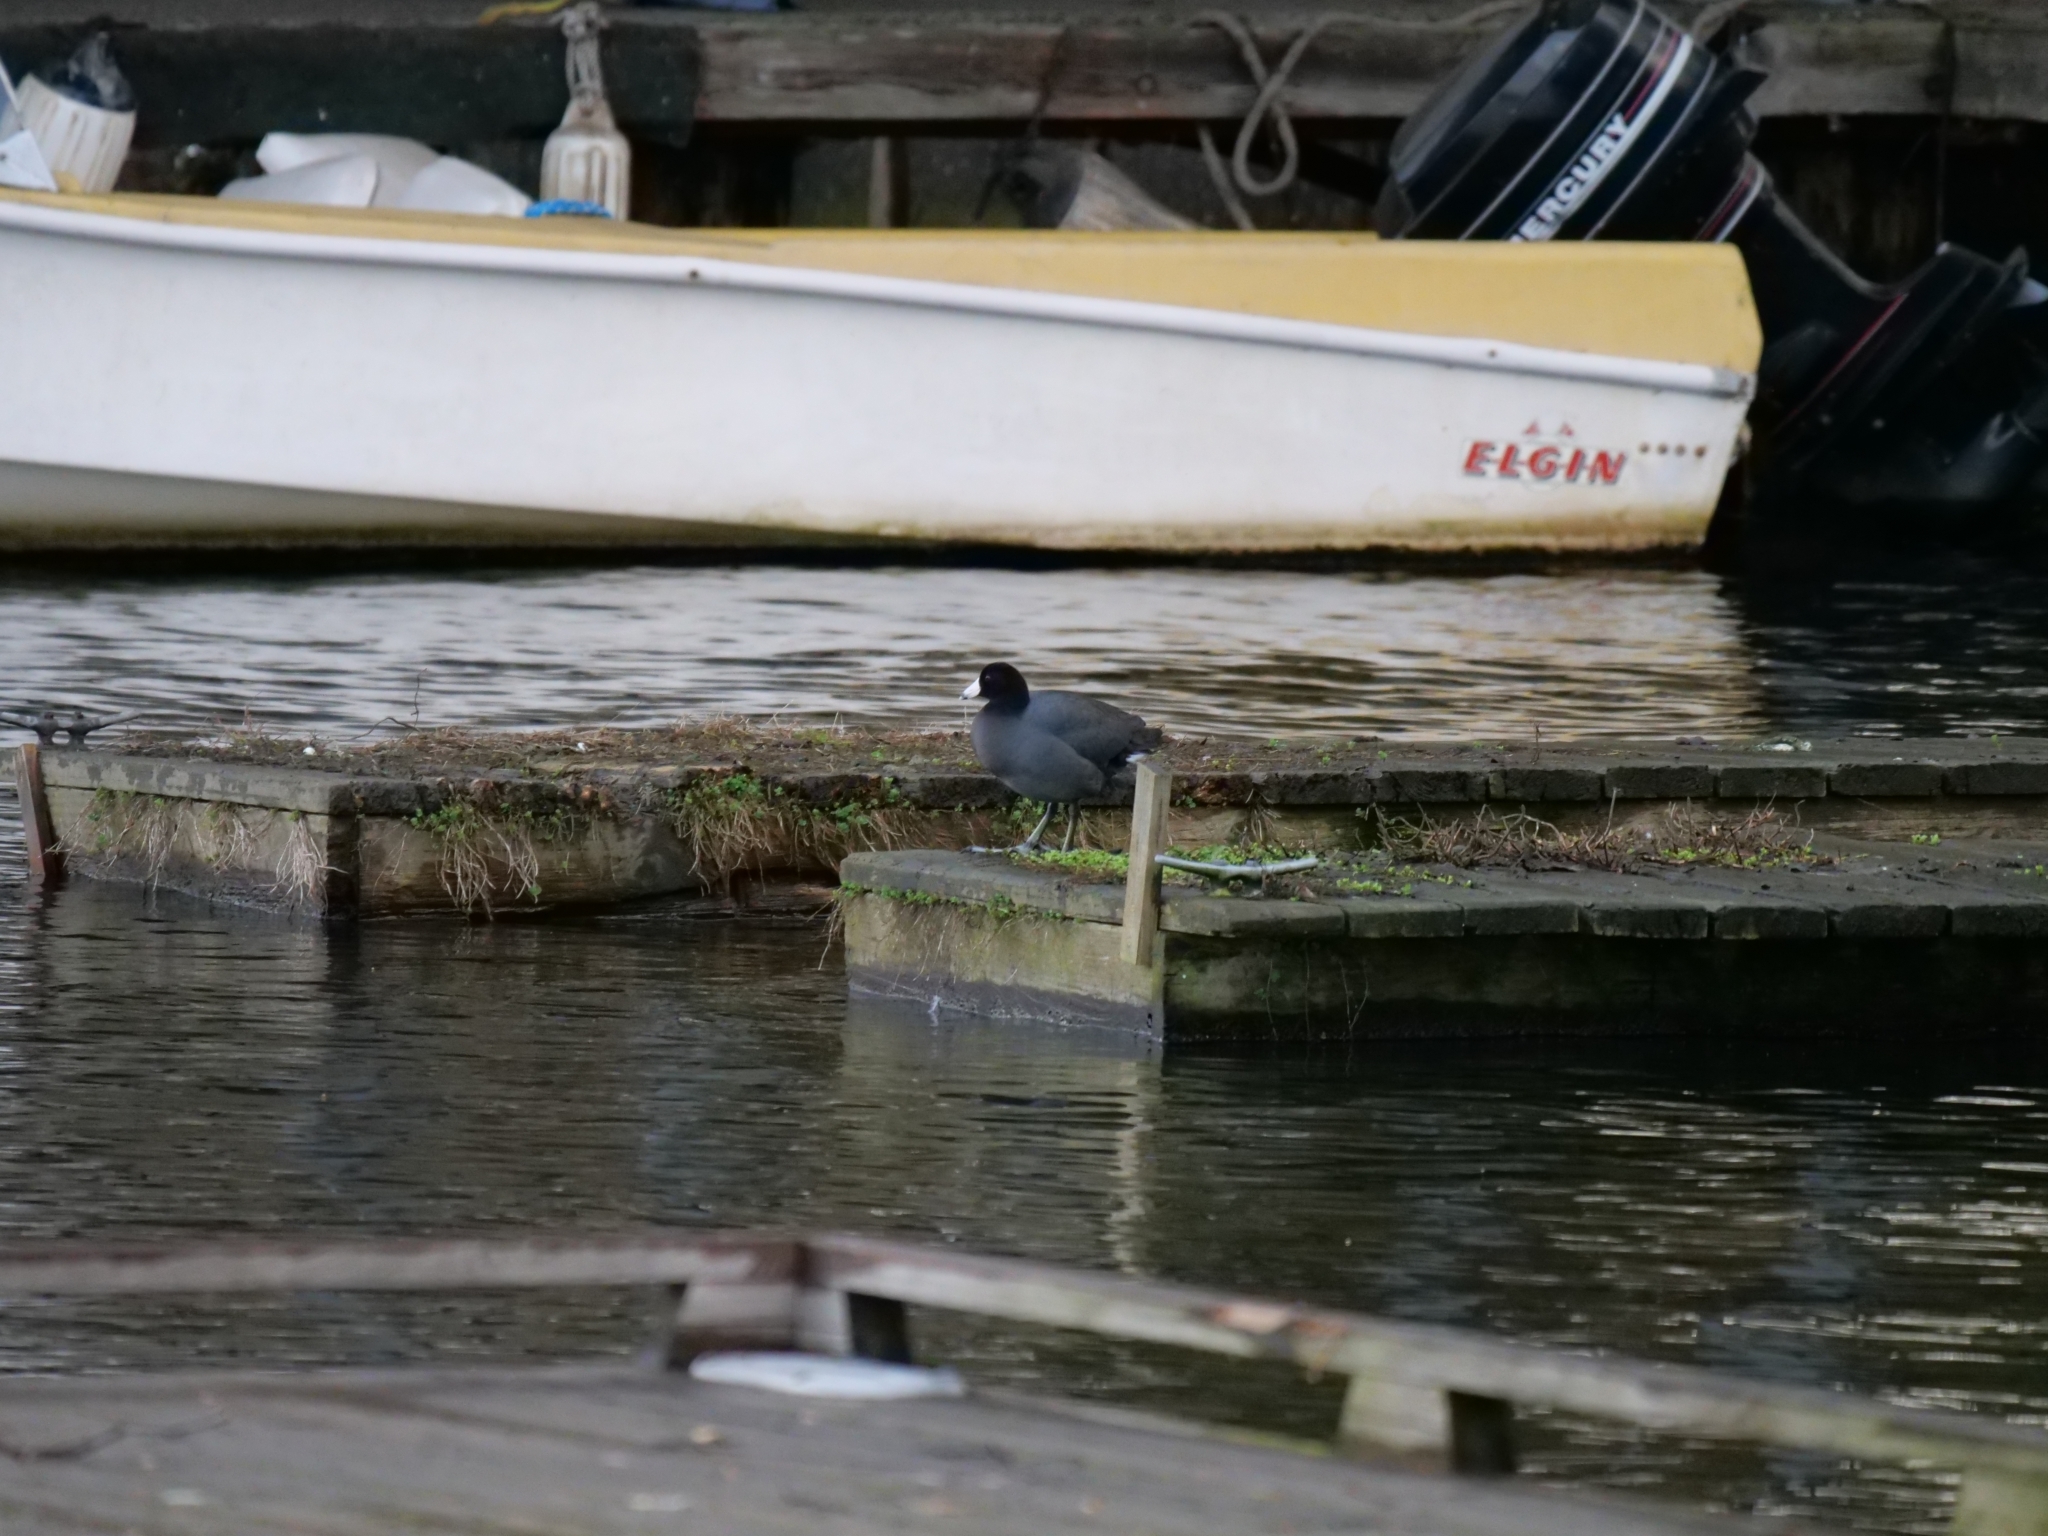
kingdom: Animalia
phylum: Chordata
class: Aves
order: Gruiformes
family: Rallidae
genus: Fulica
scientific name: Fulica americana
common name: American coot
